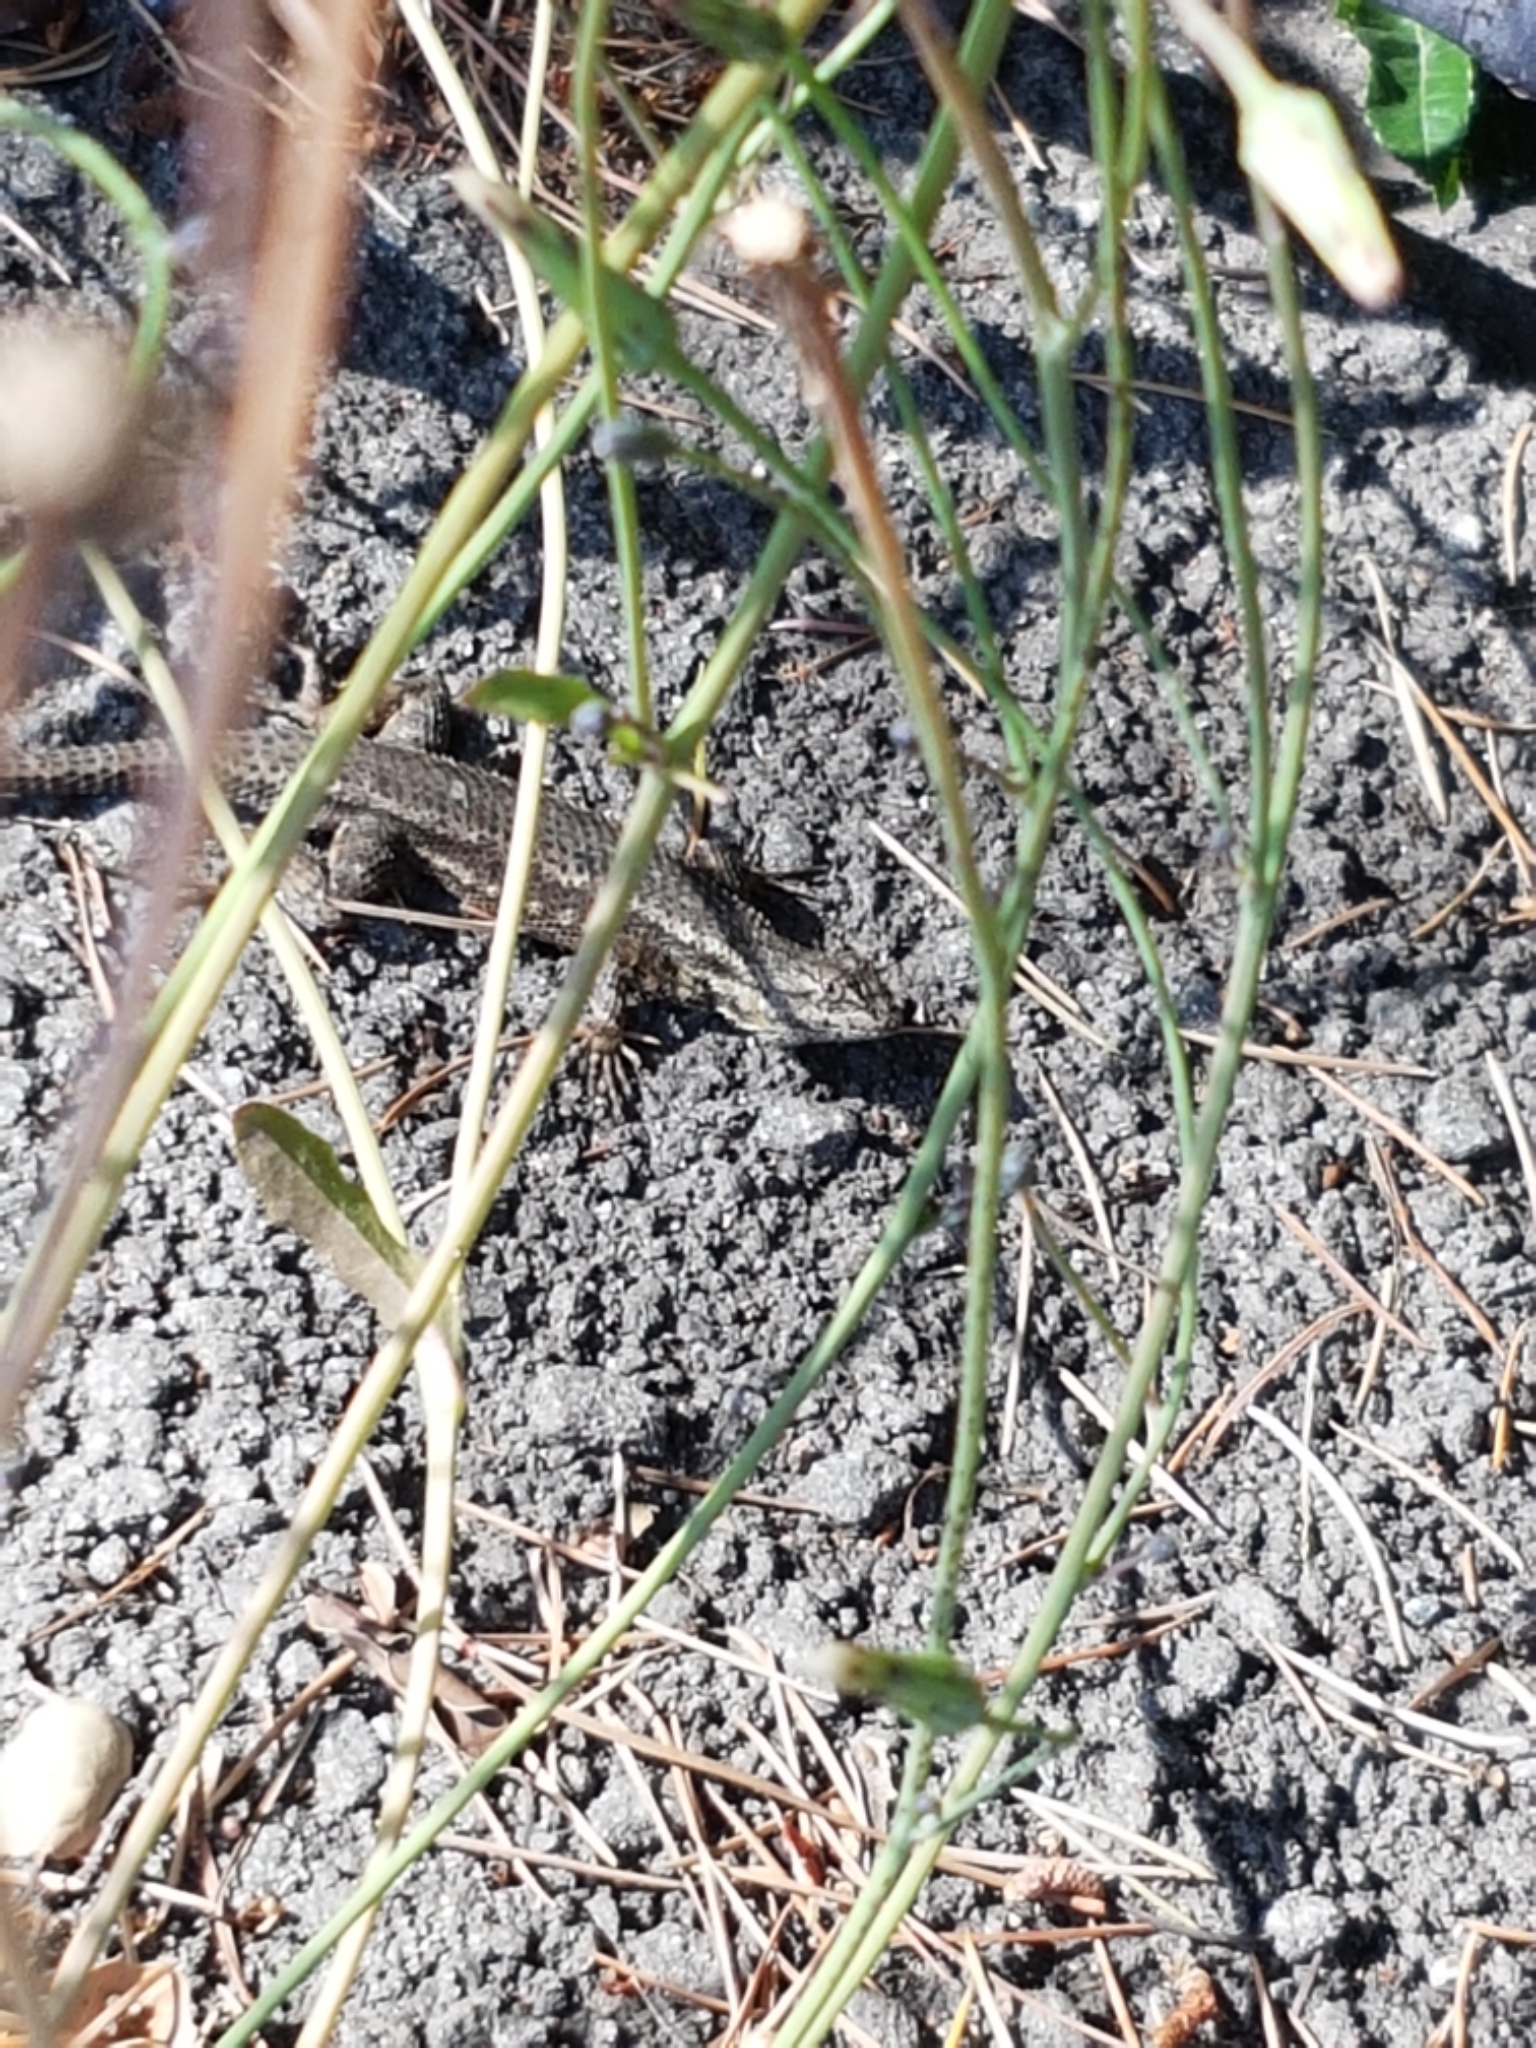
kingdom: Animalia
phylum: Chordata
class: Squamata
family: Phrynosomatidae
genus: Sceloporus
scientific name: Sceloporus occidentalis
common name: Western fence lizard
